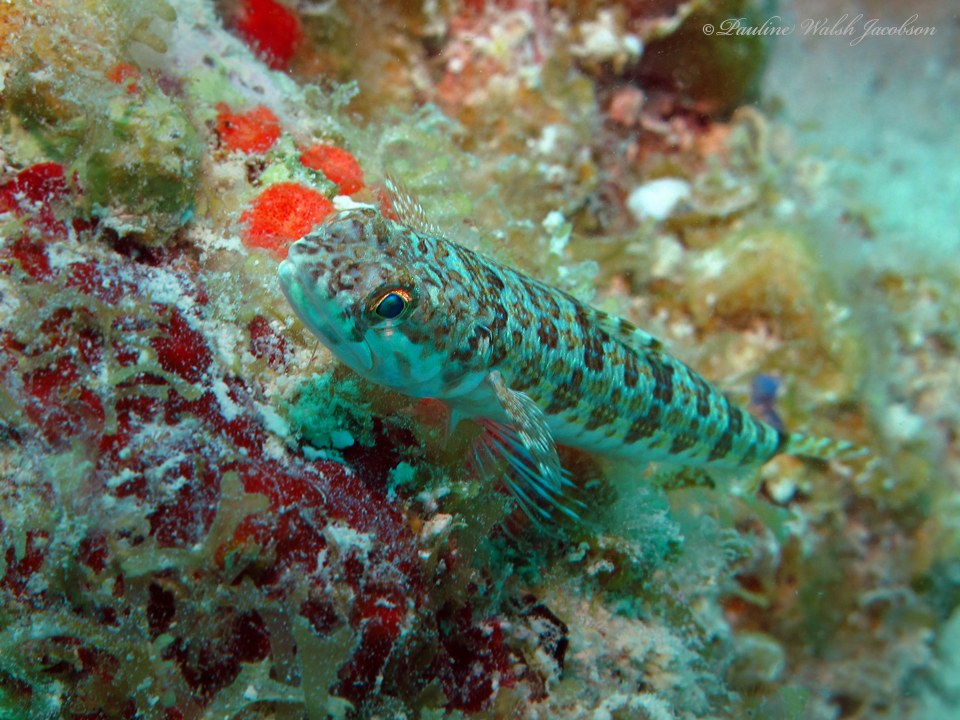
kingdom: Animalia
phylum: Chordata
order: Aulopiformes
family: Synodontidae
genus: Synodus
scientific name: Synodus intermedius
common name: Sand diver
